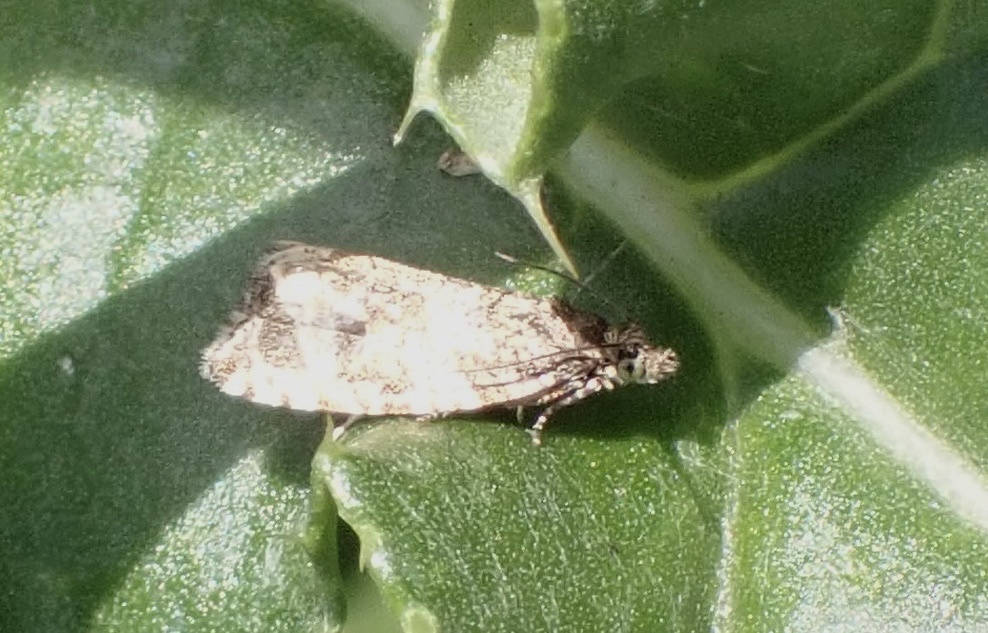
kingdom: Animalia
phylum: Arthropoda
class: Insecta
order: Lepidoptera
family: Tortricidae
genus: Syricoris
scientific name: Syricoris lacunana
